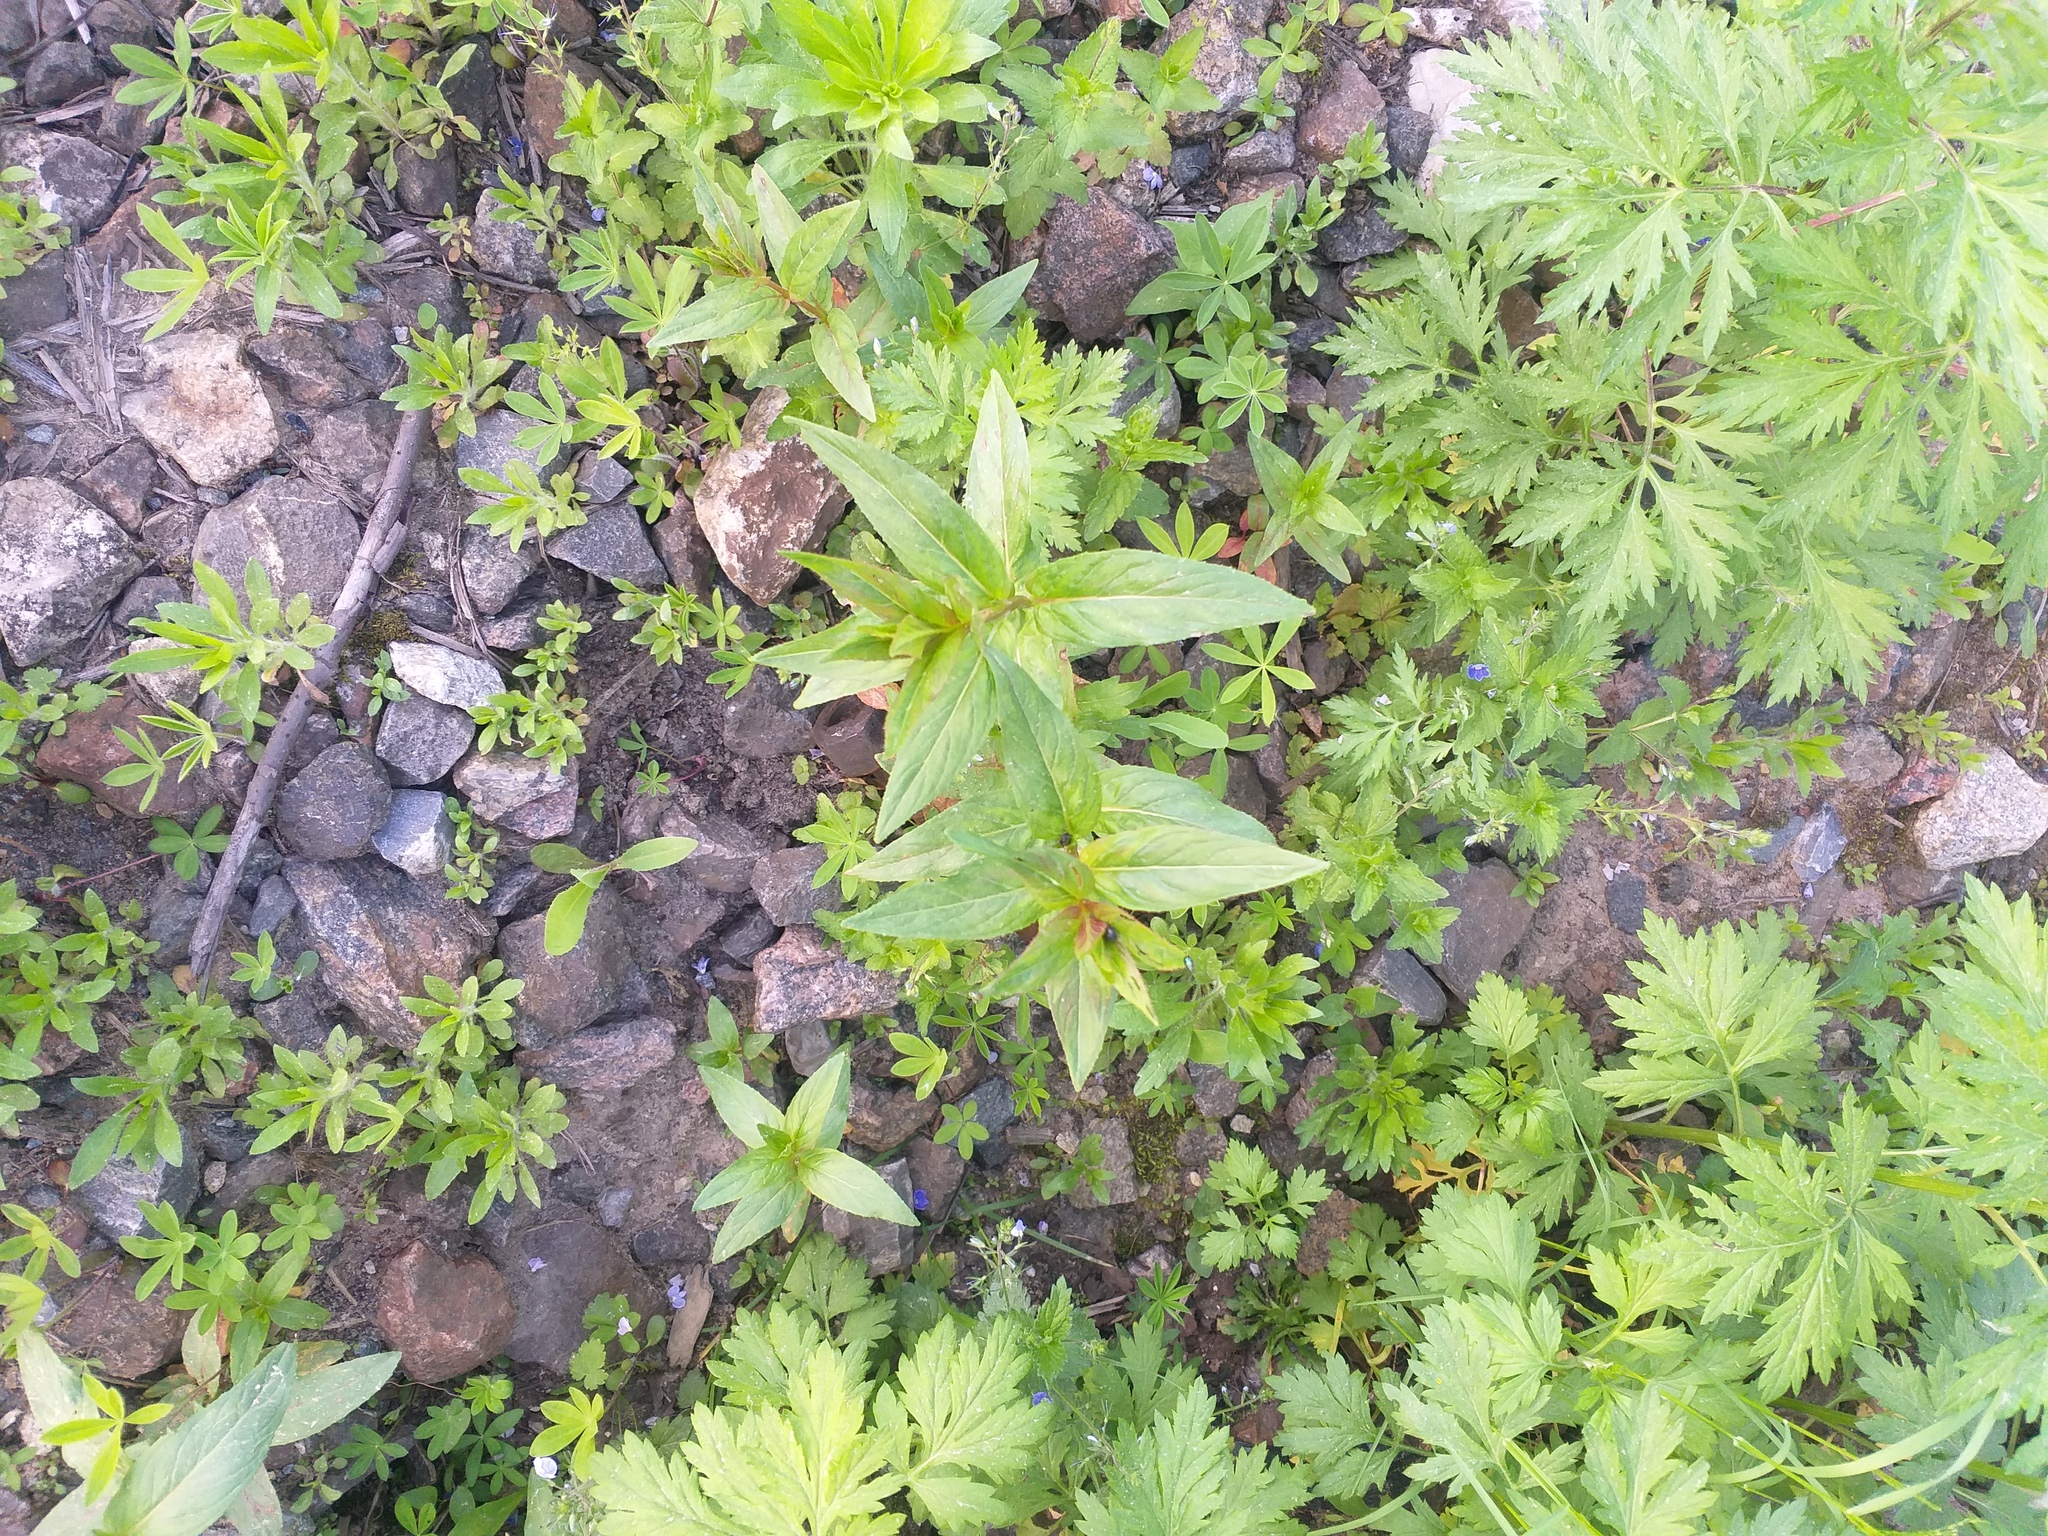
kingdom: Plantae
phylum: Tracheophyta
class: Magnoliopsida
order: Myrtales
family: Onagraceae
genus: Epilobium
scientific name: Epilobium
